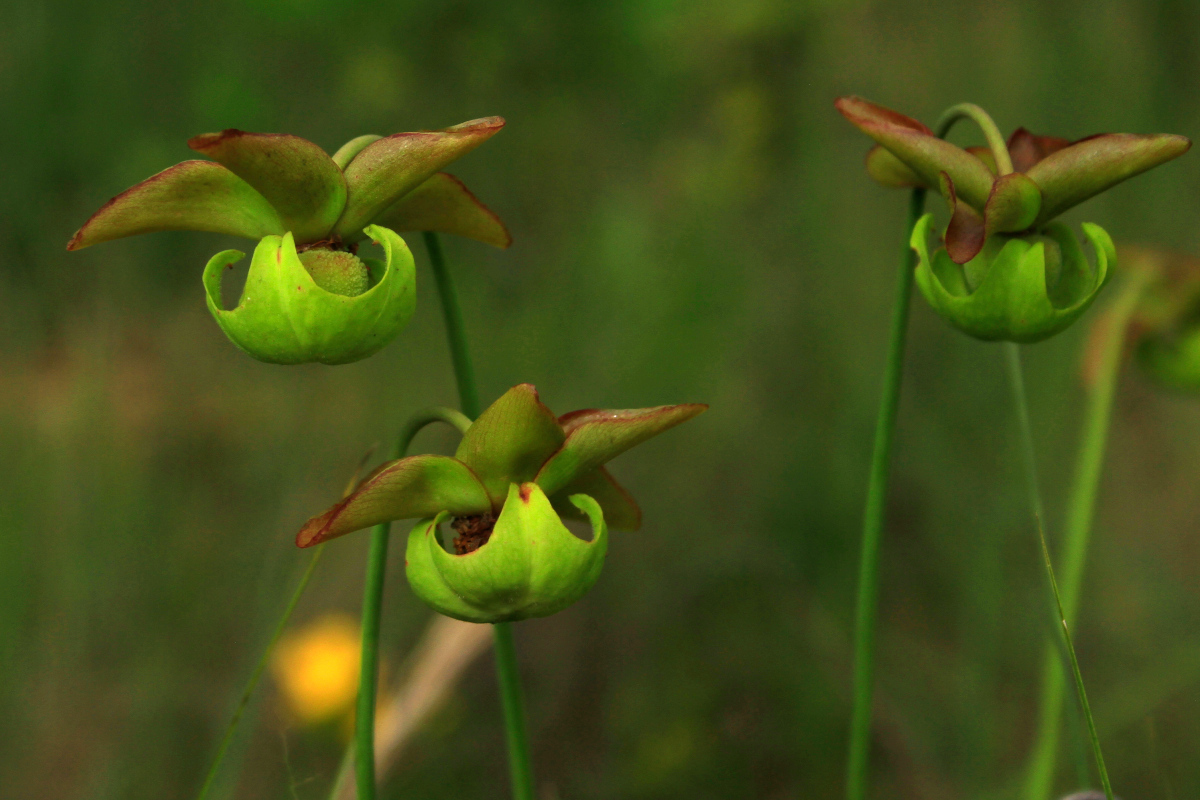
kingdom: Plantae
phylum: Tracheophyta
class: Magnoliopsida
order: Ericales
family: Sarraceniaceae
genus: Sarracenia
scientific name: Sarracenia catesbaei
